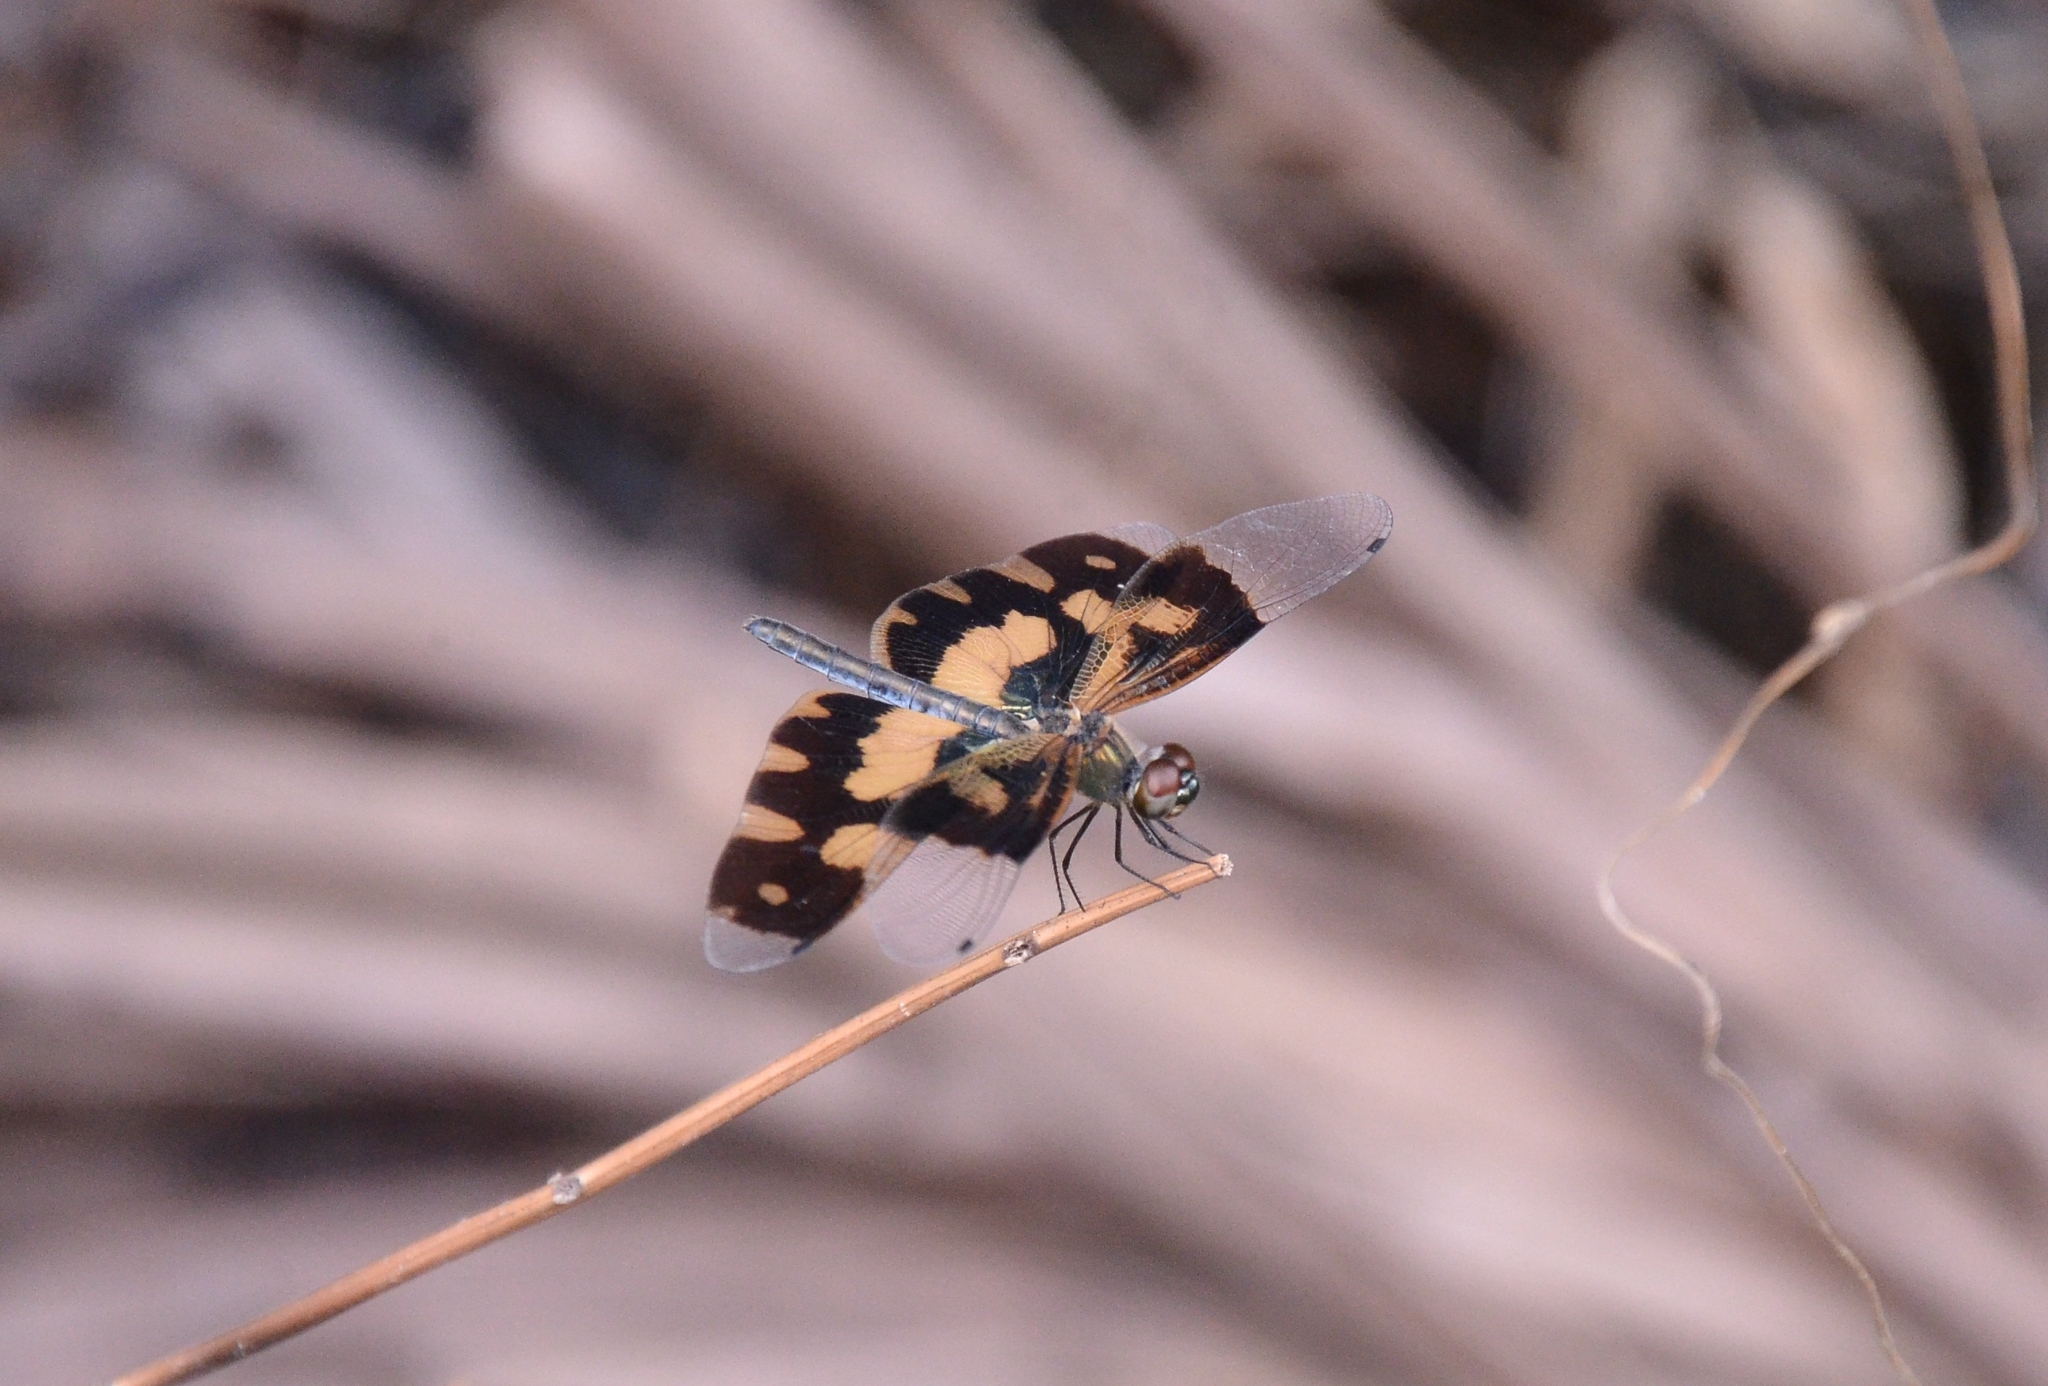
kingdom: Animalia
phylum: Arthropoda
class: Insecta
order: Odonata
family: Libellulidae
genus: Rhyothemis
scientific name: Rhyothemis variegata
